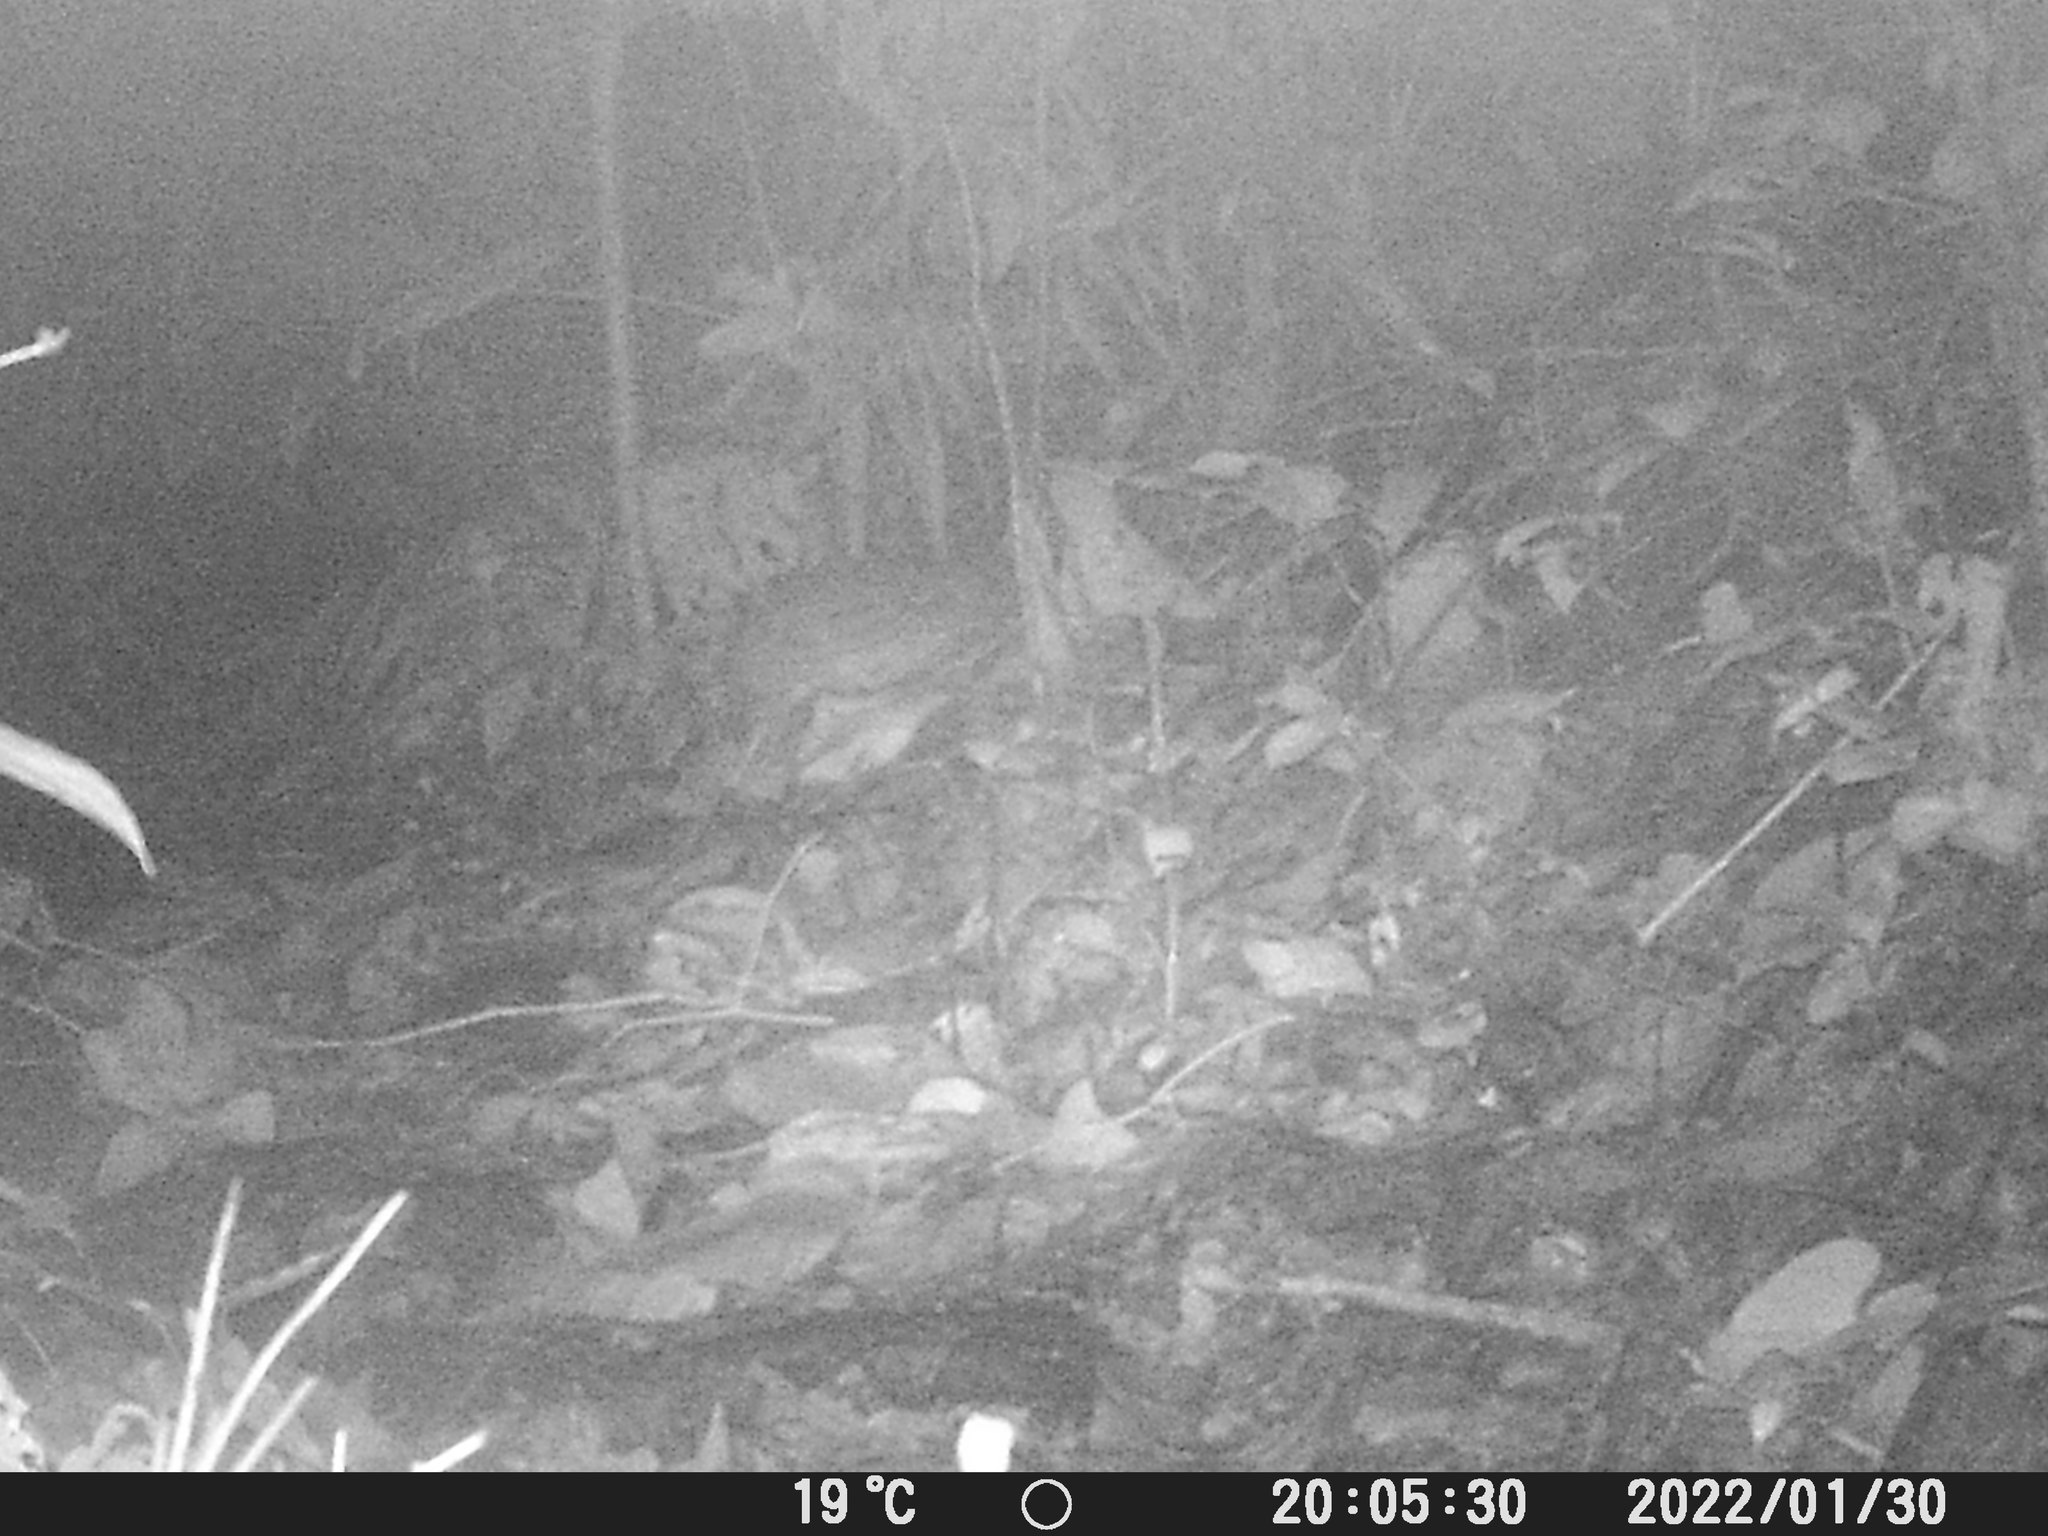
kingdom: Animalia
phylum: Chordata
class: Mammalia
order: Rodentia
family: Cuniculidae
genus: Cuniculus
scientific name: Cuniculus paca
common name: Lowland paca
